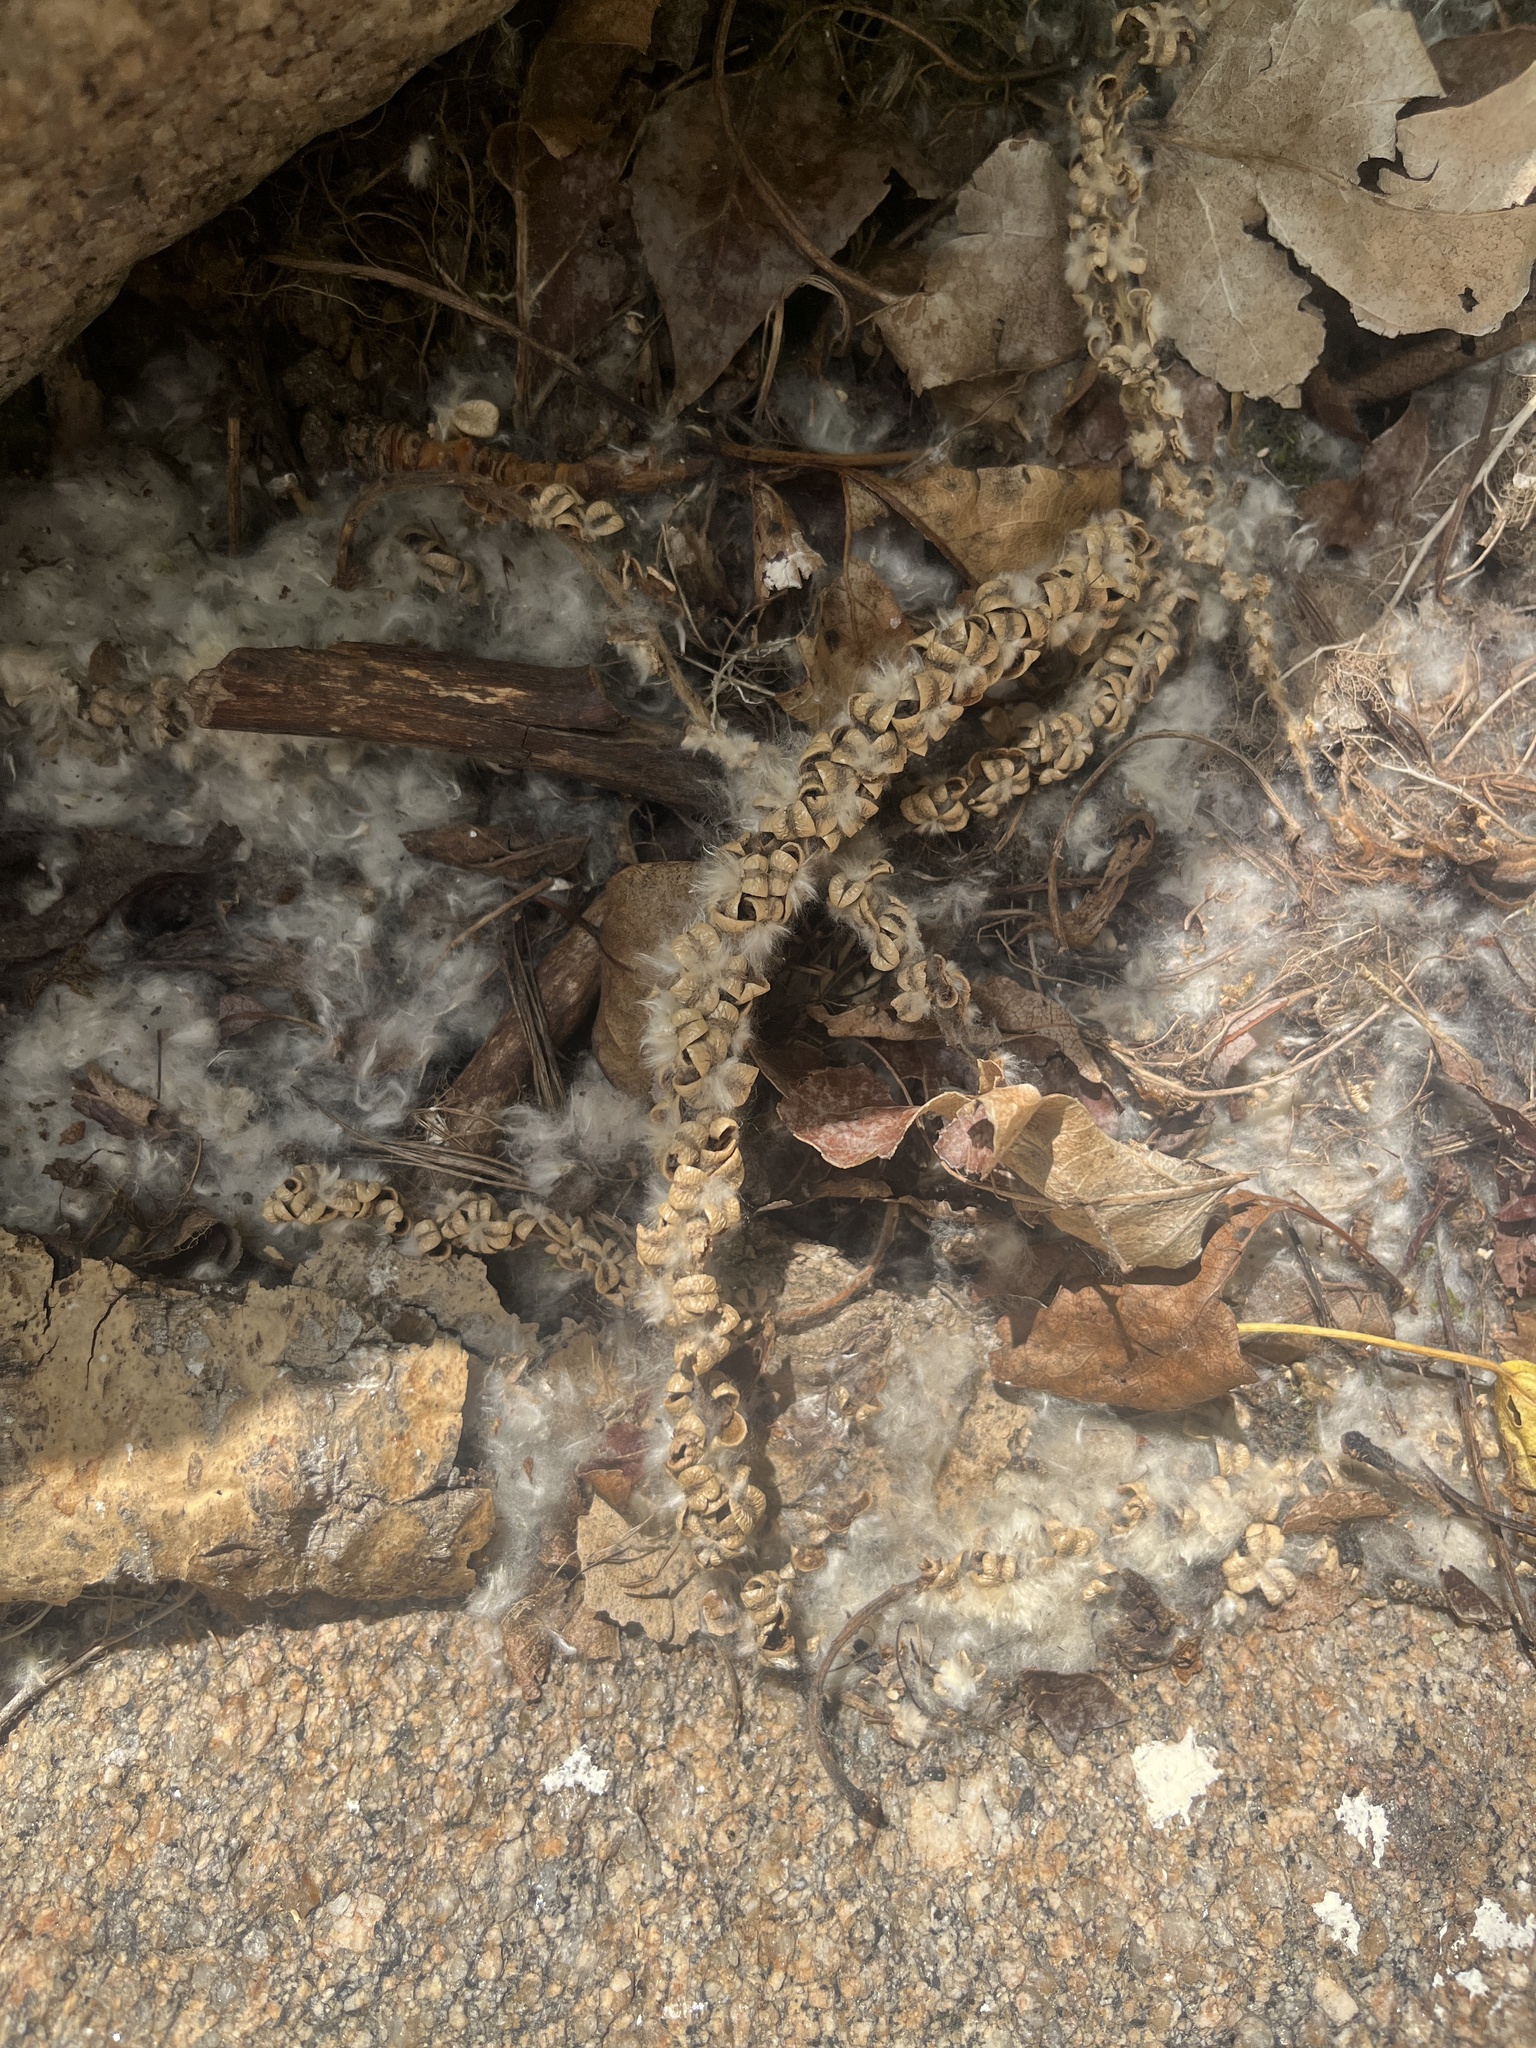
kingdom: Plantae
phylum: Tracheophyta
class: Magnoliopsida
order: Malpighiales
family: Salicaceae
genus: Populus
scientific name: Populus trichocarpa
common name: Black cottonwood
